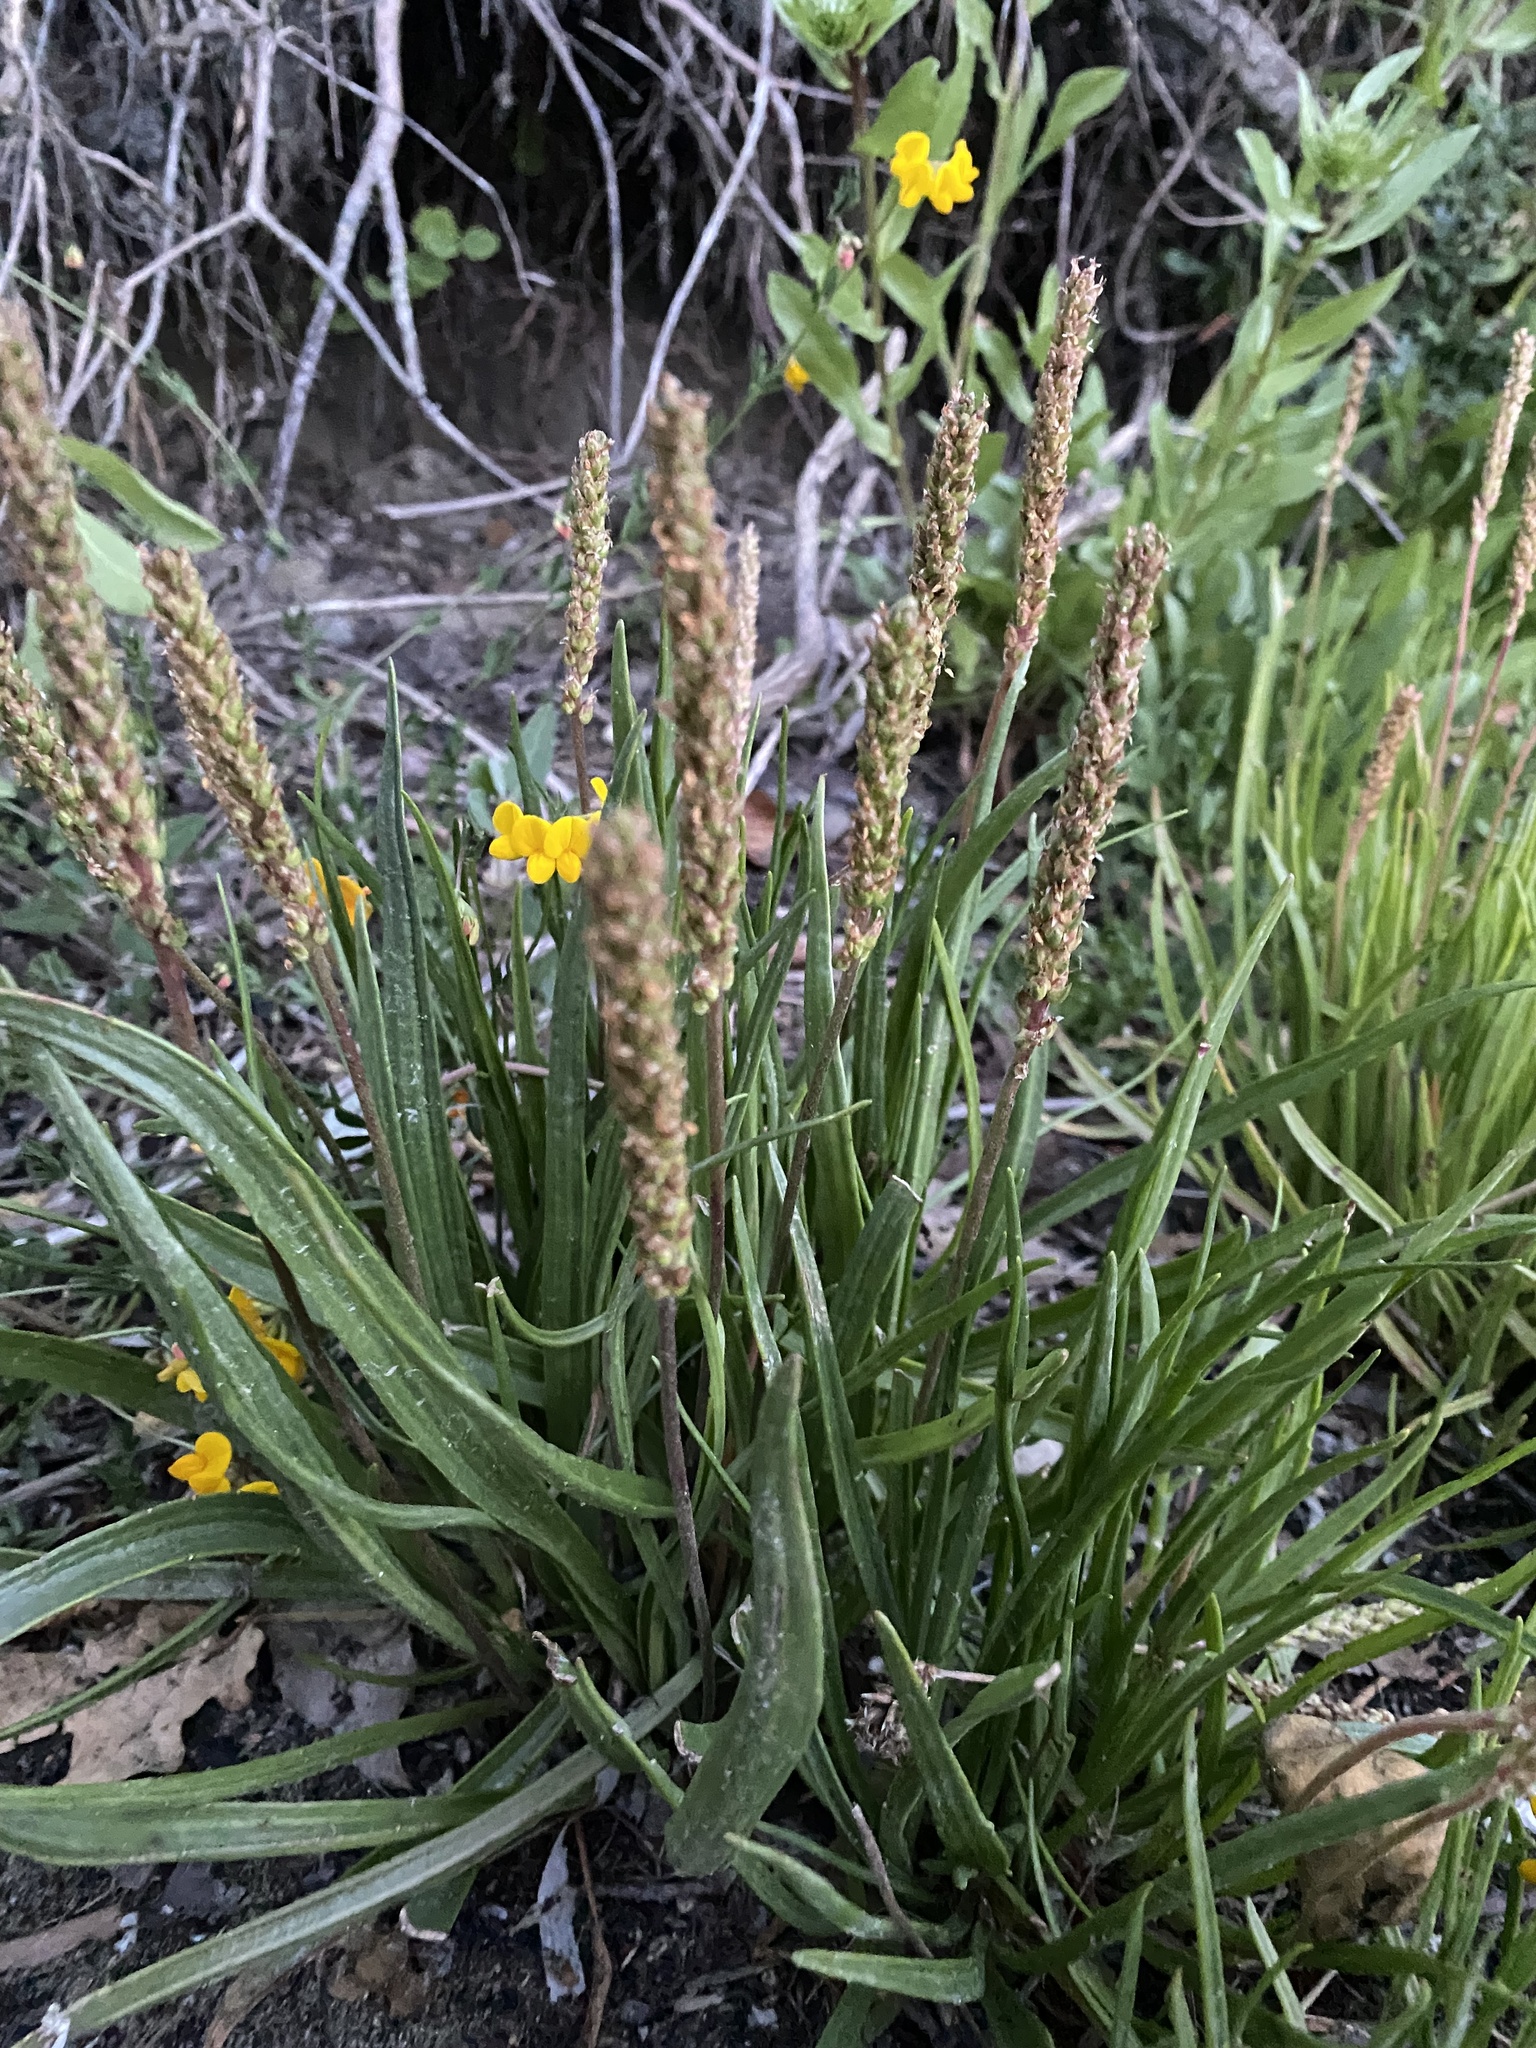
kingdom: Plantae
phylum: Tracheophyta
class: Magnoliopsida
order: Lamiales
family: Plantaginaceae
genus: Plantago
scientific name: Plantago maritima
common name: Sea plantain
